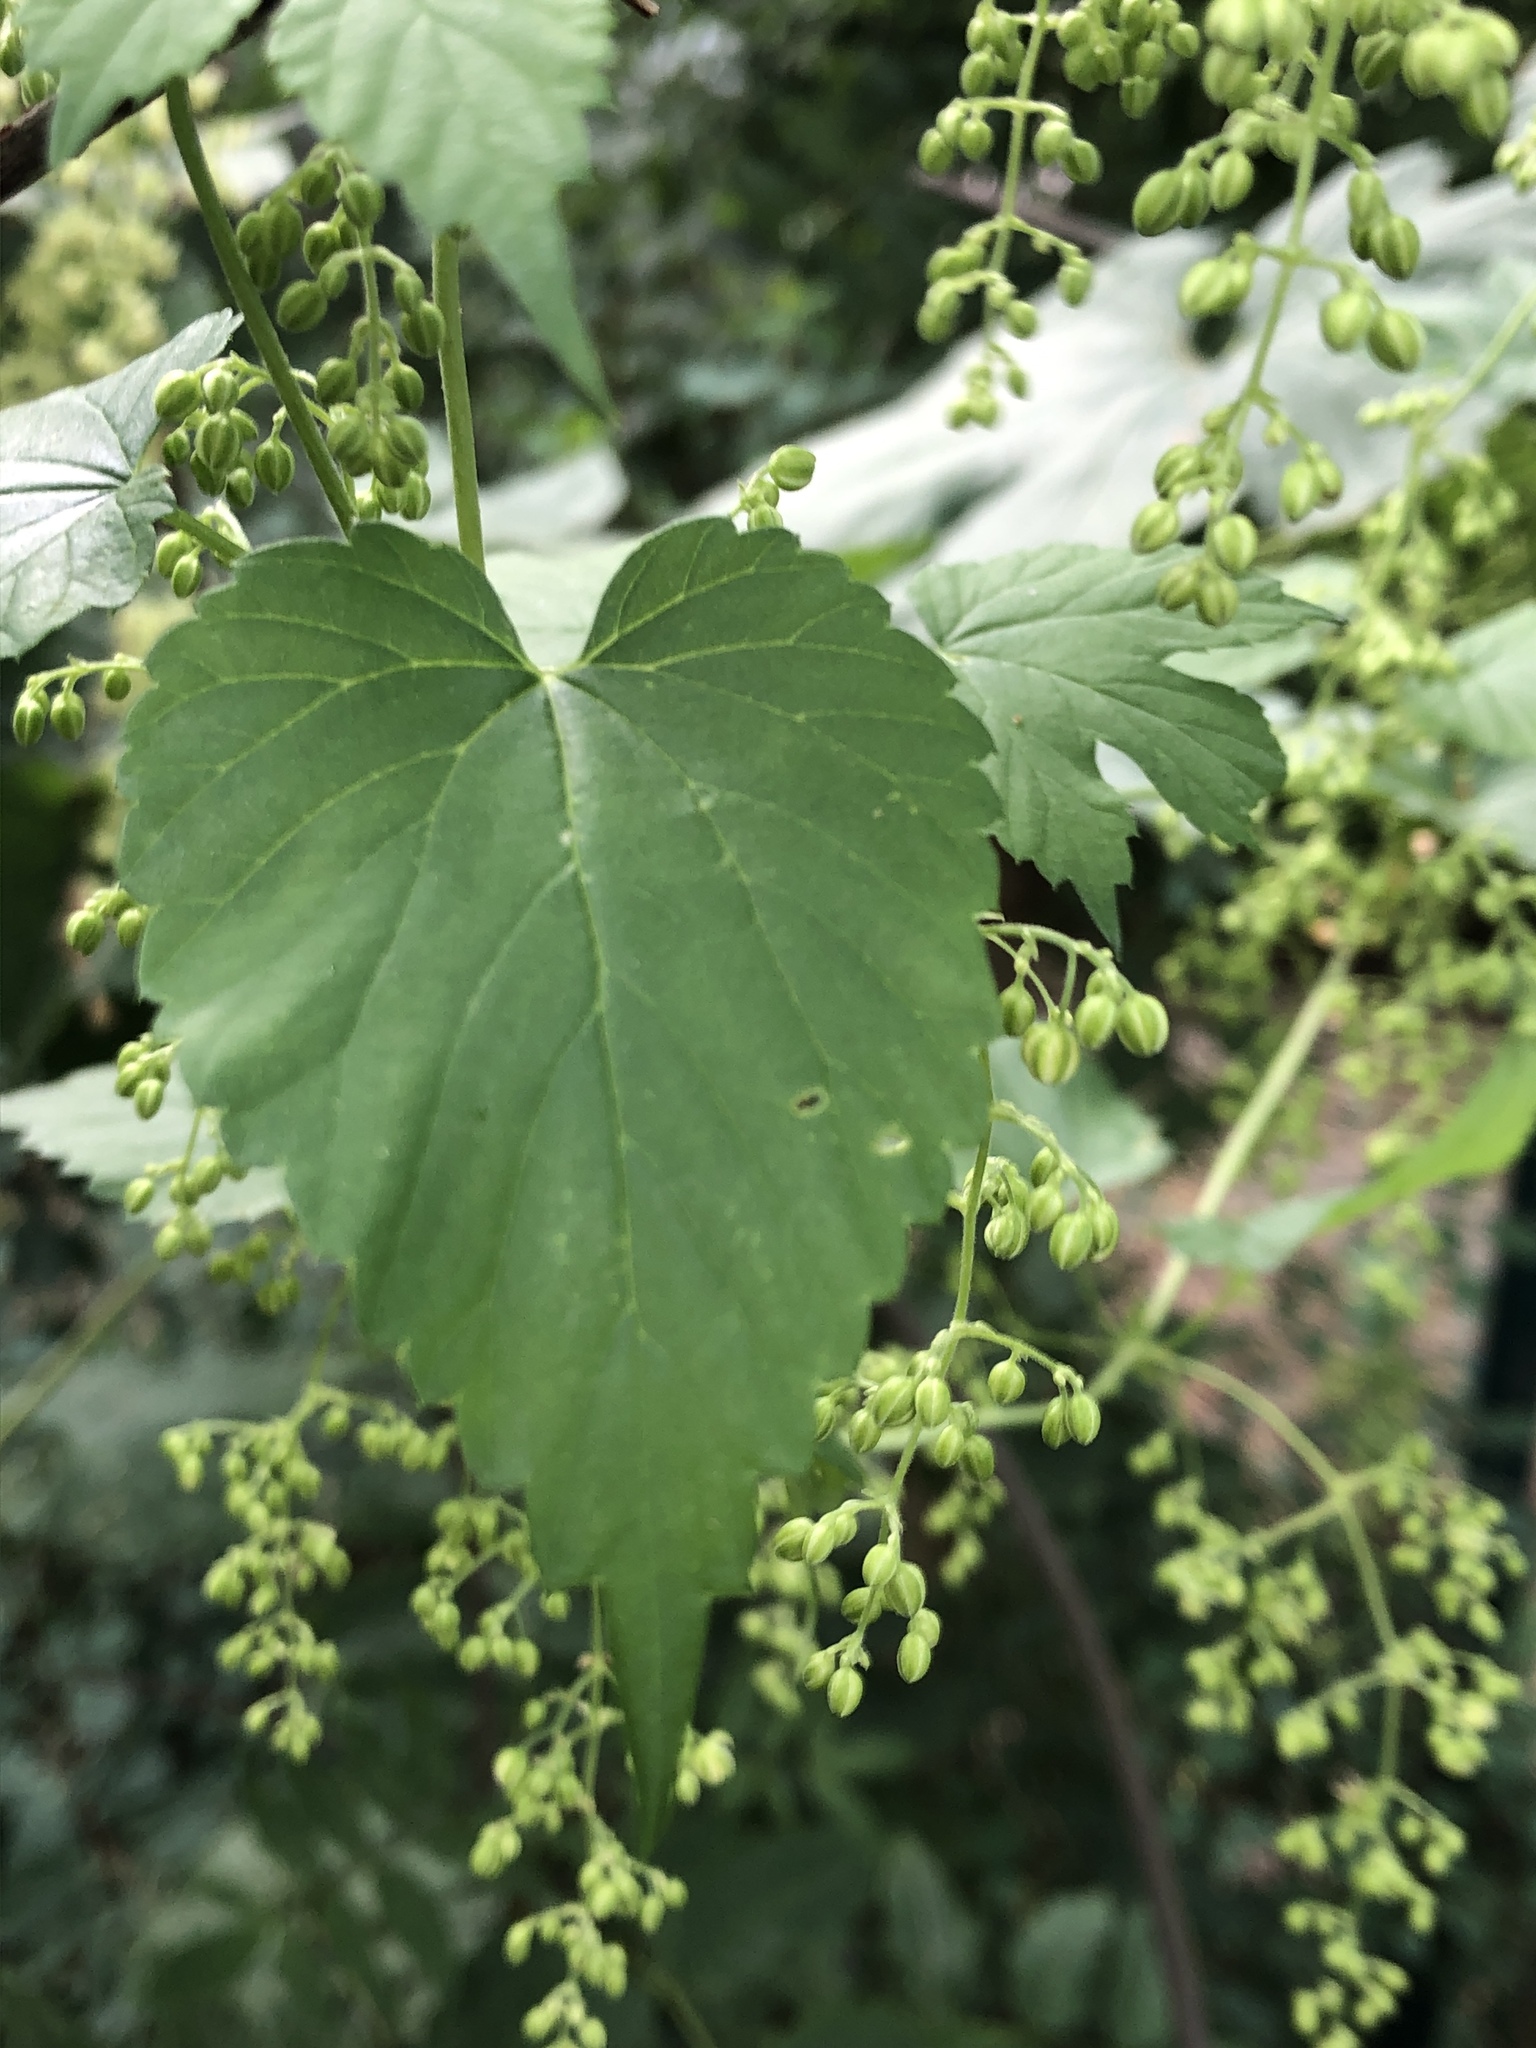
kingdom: Plantae
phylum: Tracheophyta
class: Magnoliopsida
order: Rosales
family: Cannabaceae
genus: Humulus
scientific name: Humulus lupulus
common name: Hop
